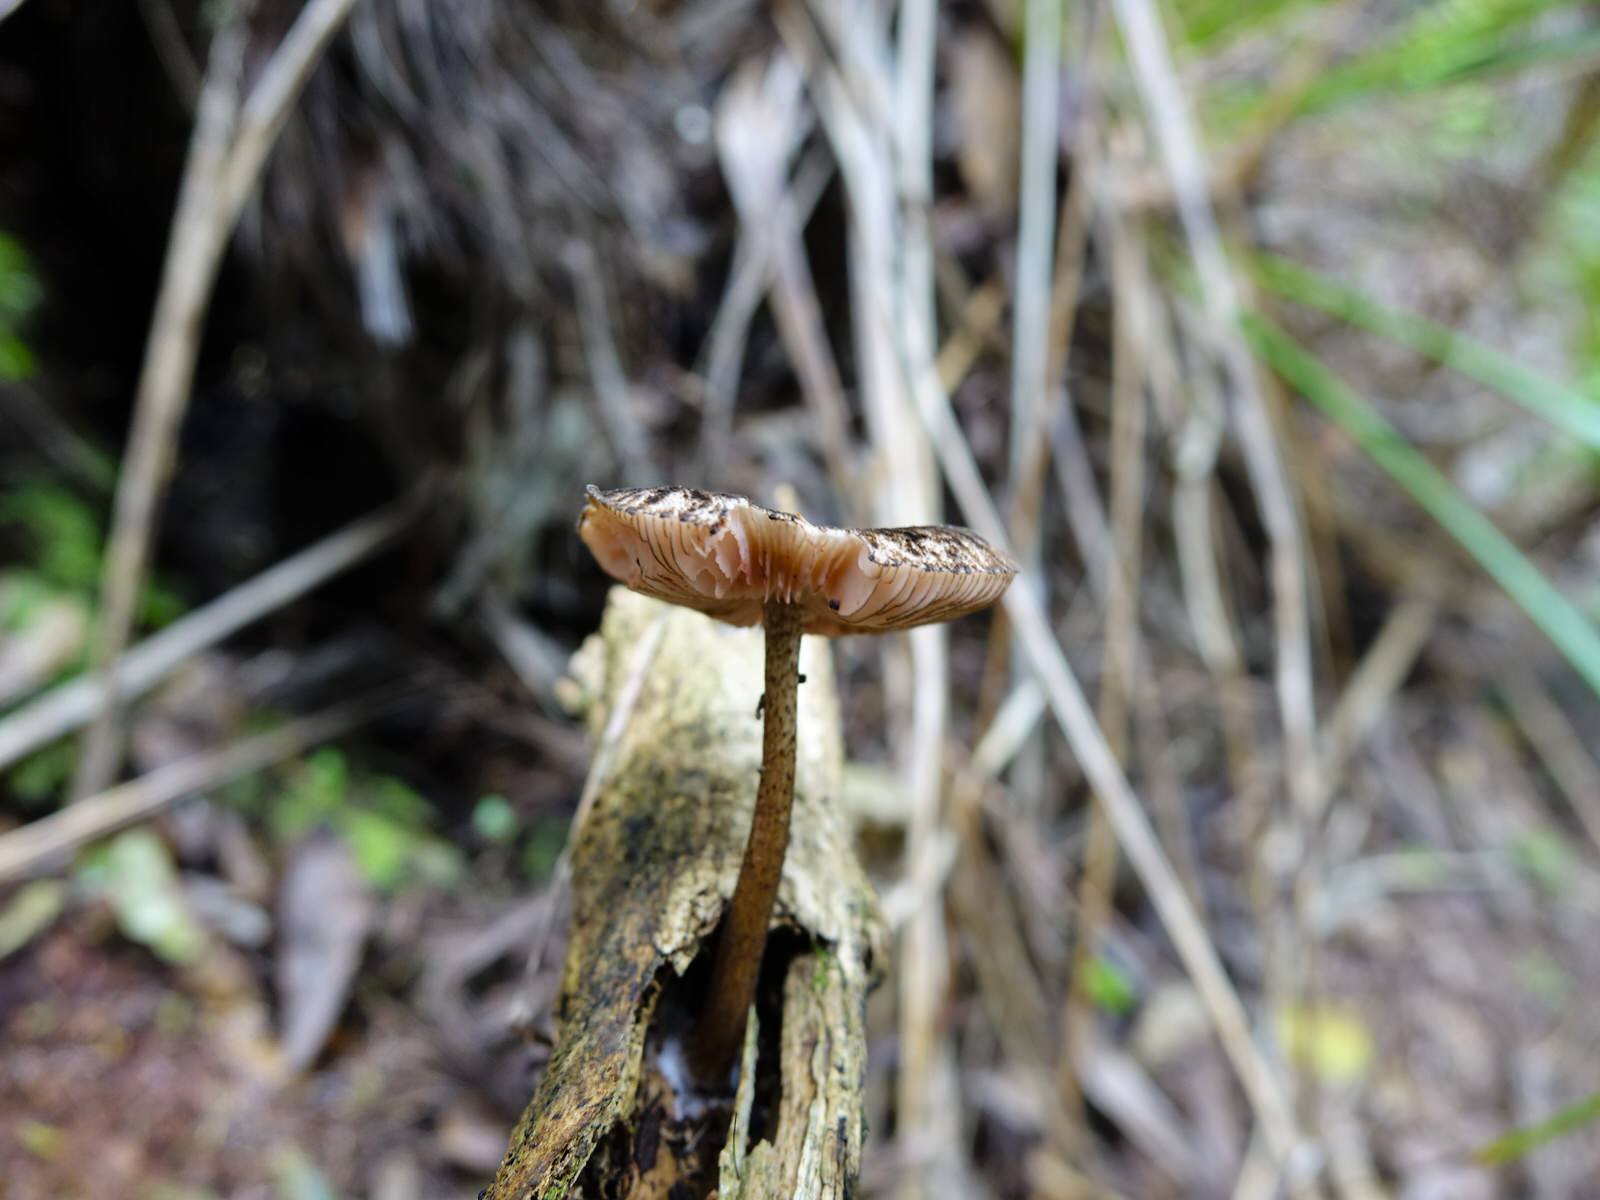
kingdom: Fungi
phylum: Basidiomycota
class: Agaricomycetes
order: Agaricales
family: Pluteaceae
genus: Pluteus
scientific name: Pluteus perroseus
